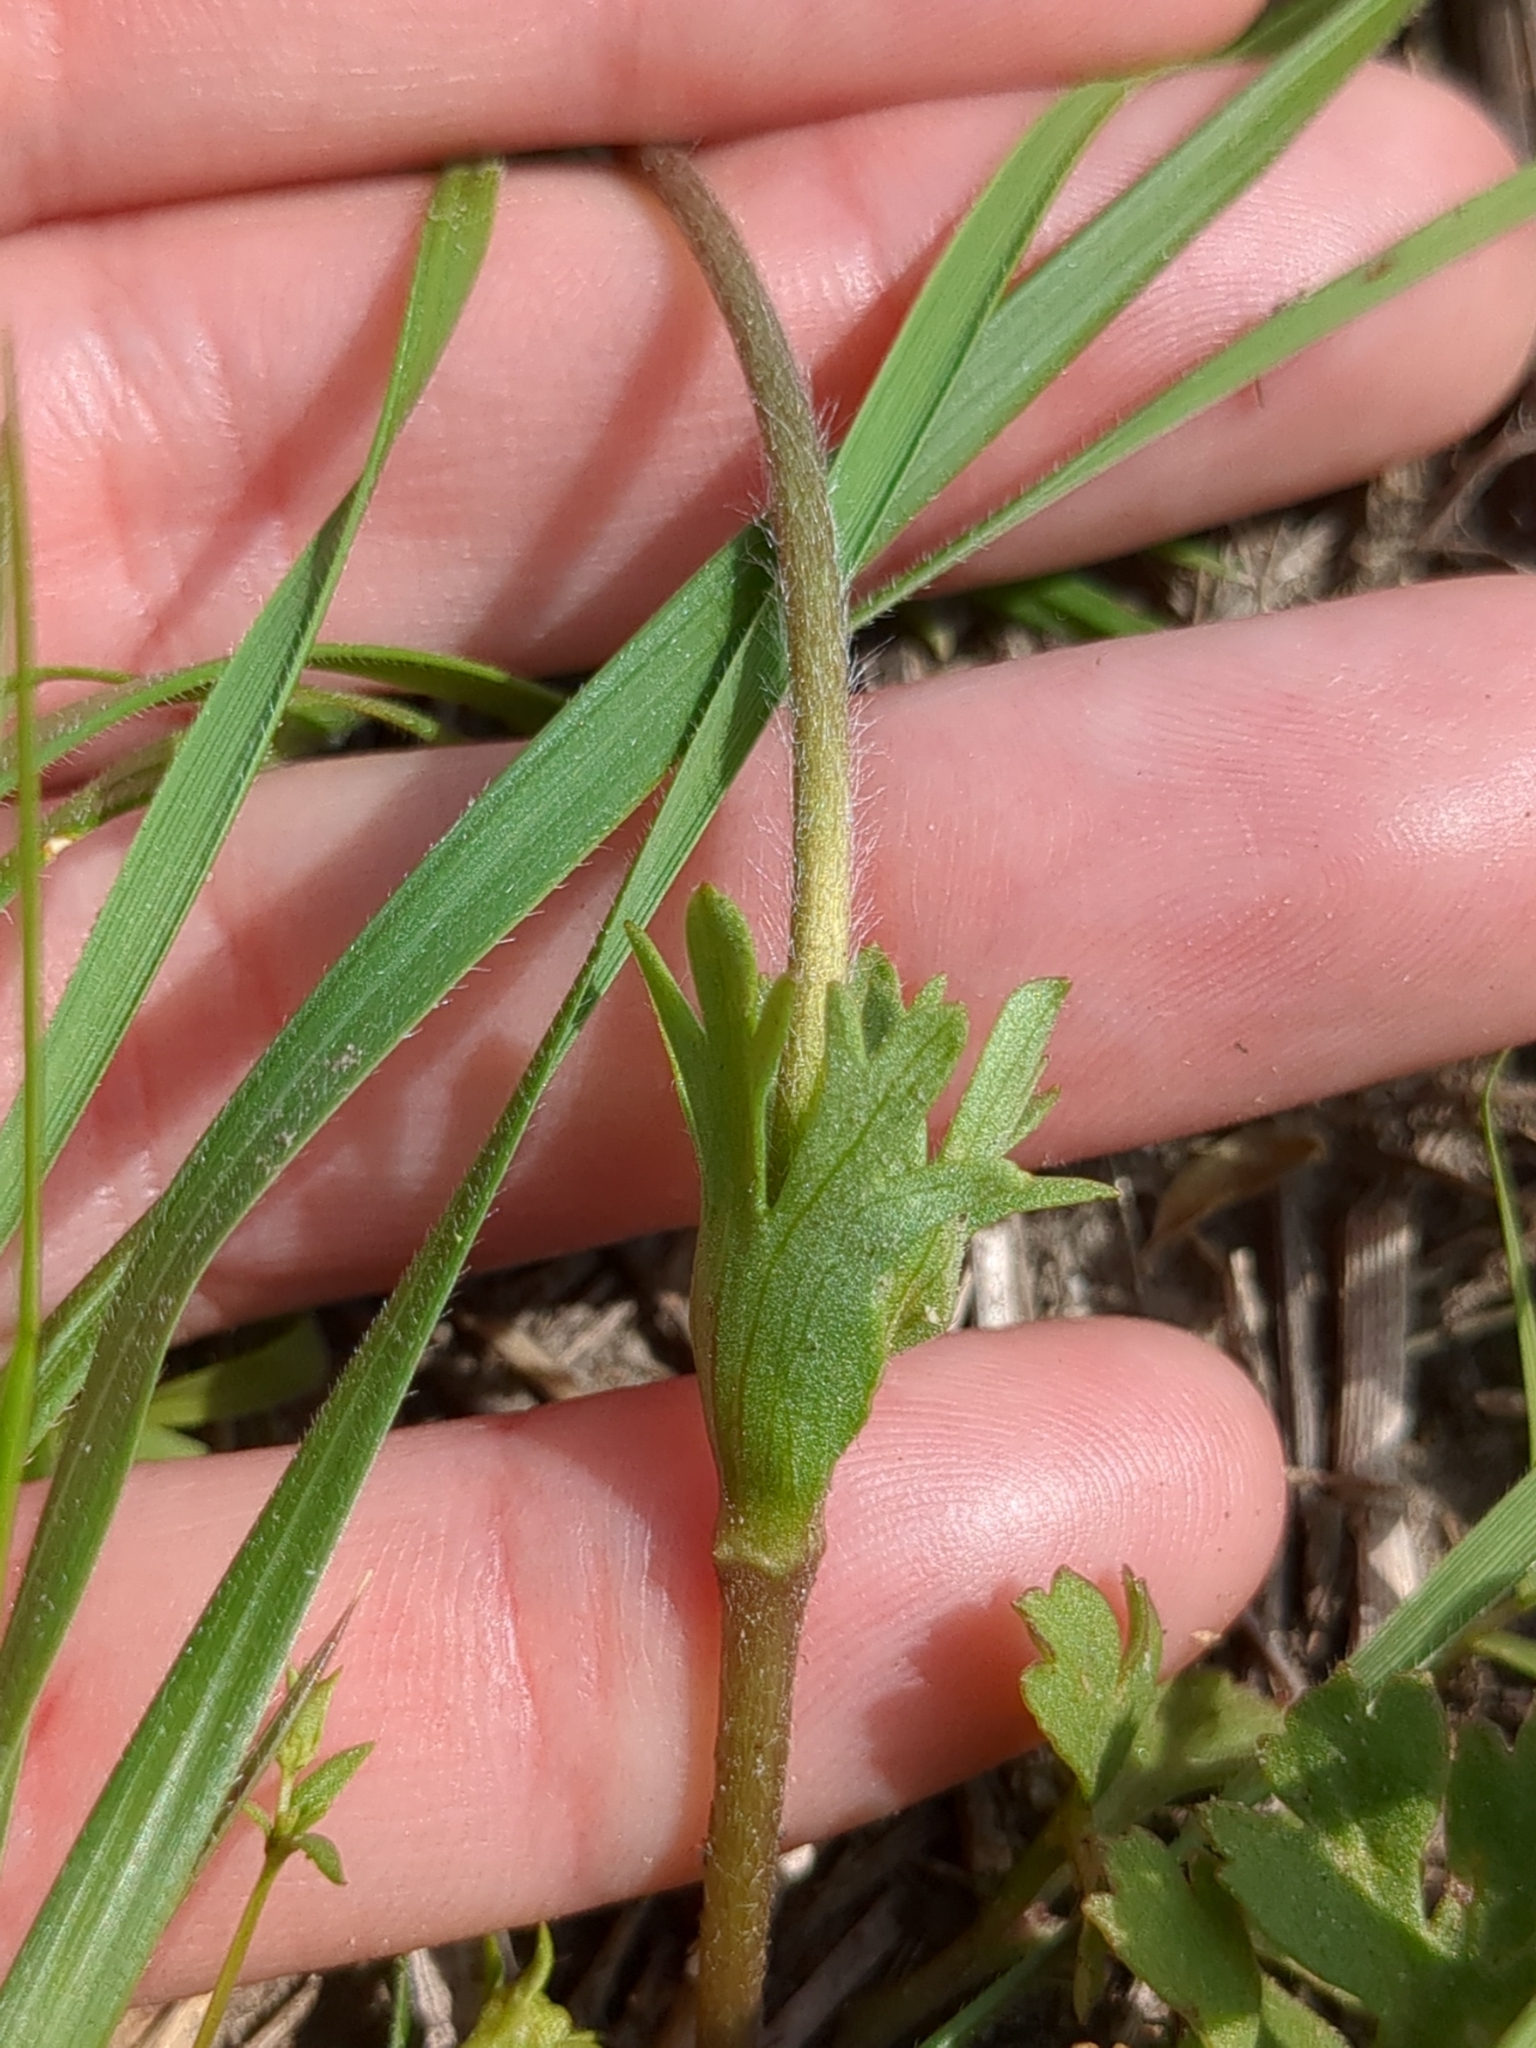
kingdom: Plantae
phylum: Tracheophyta
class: Magnoliopsida
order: Ranunculales
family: Ranunculaceae
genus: Anemone
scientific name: Anemone caroliniana
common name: Carolina anemone
